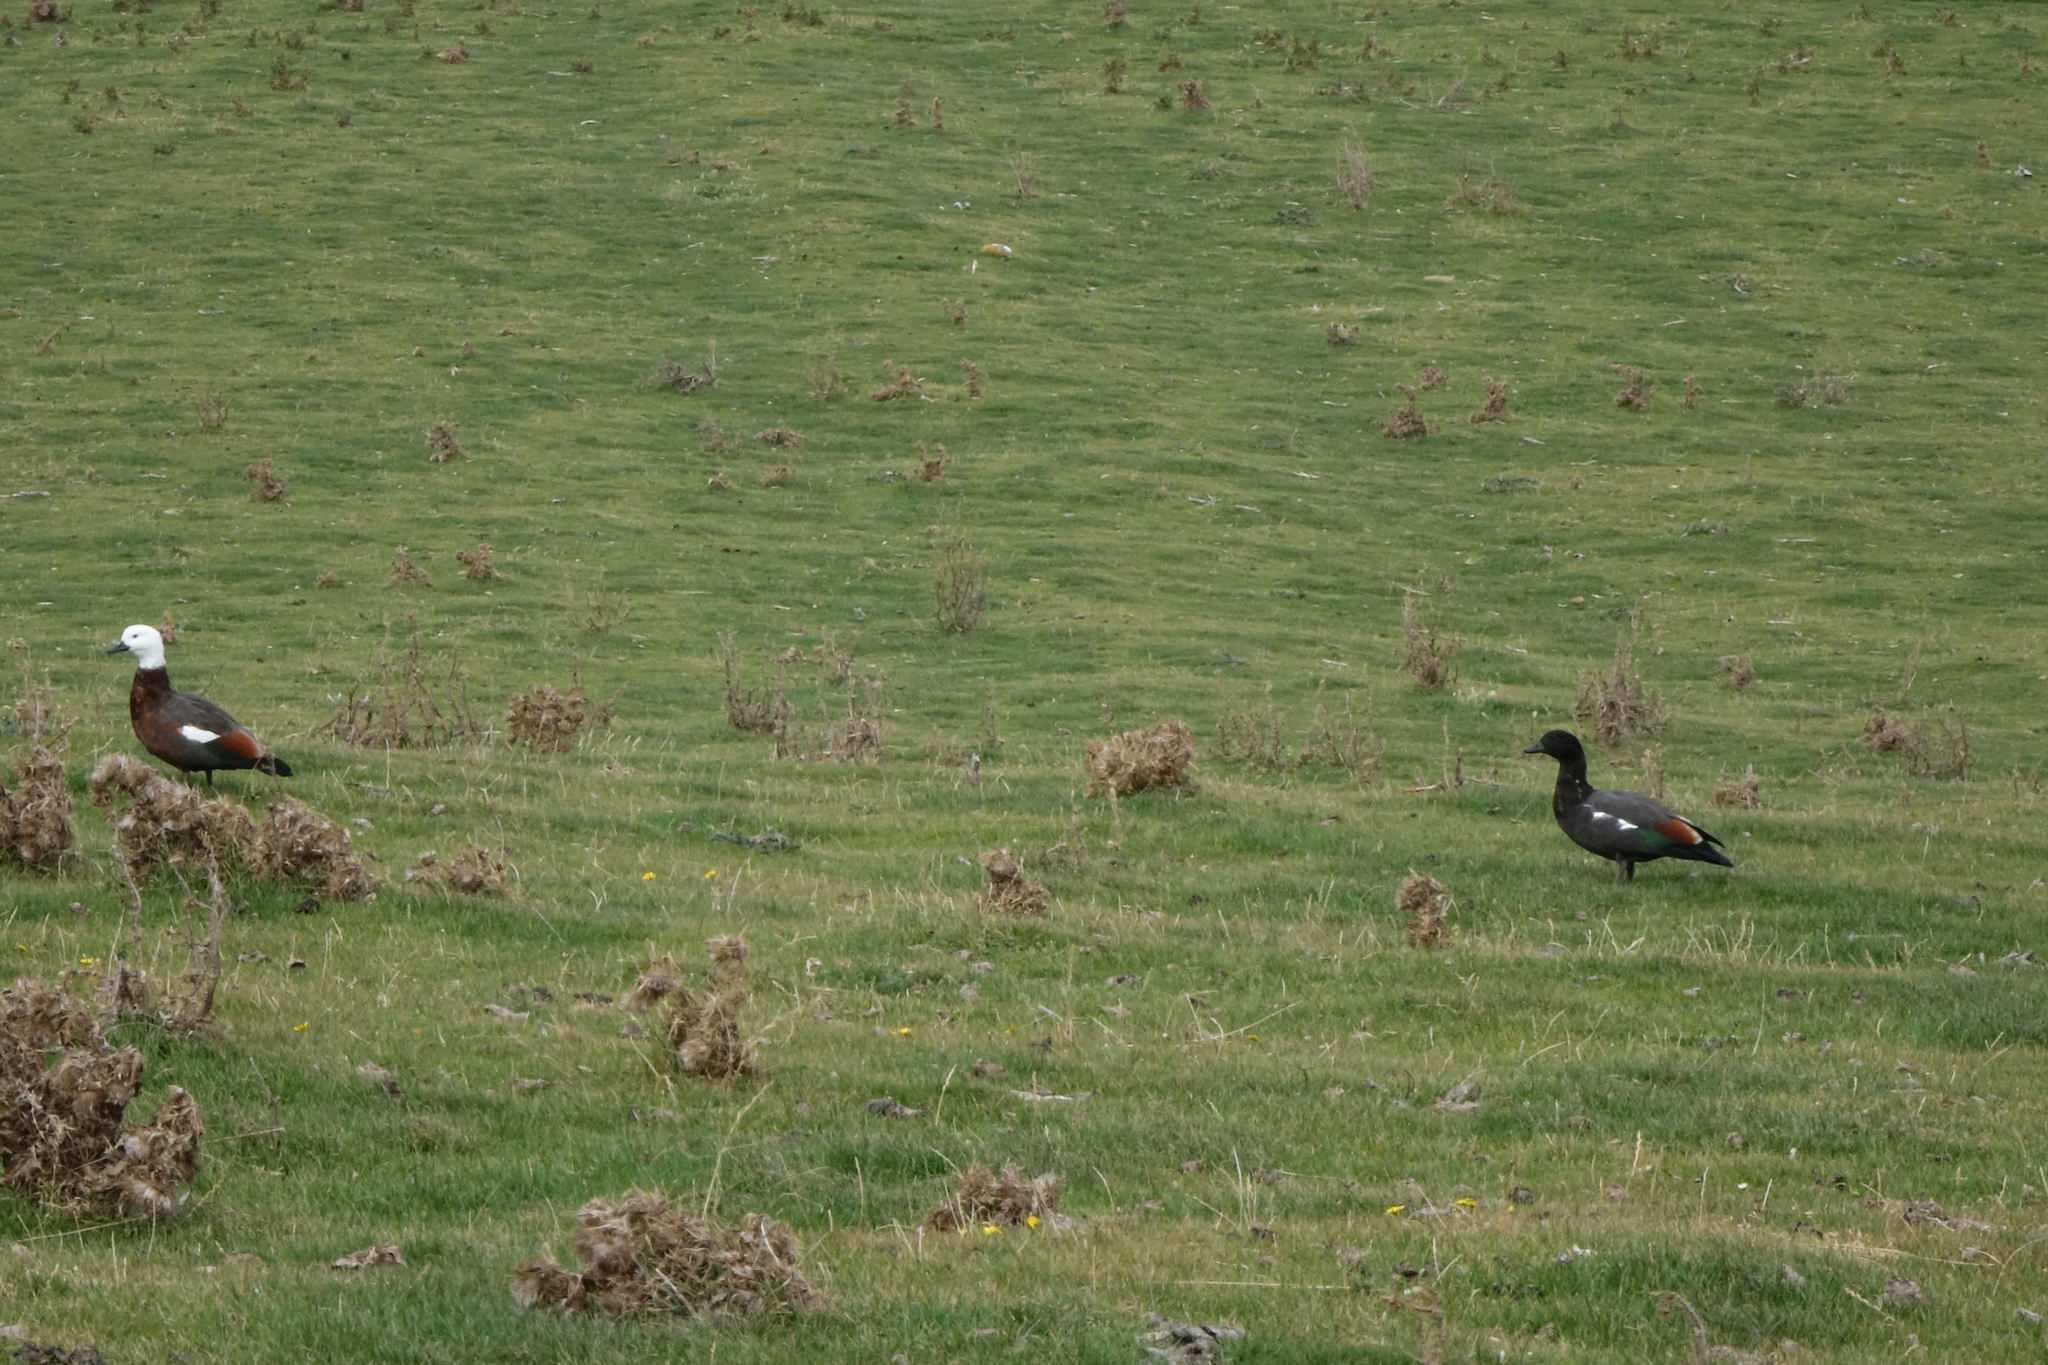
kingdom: Animalia
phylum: Chordata
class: Aves
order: Anseriformes
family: Anatidae
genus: Tadorna
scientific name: Tadorna variegata
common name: Paradise shelduck
